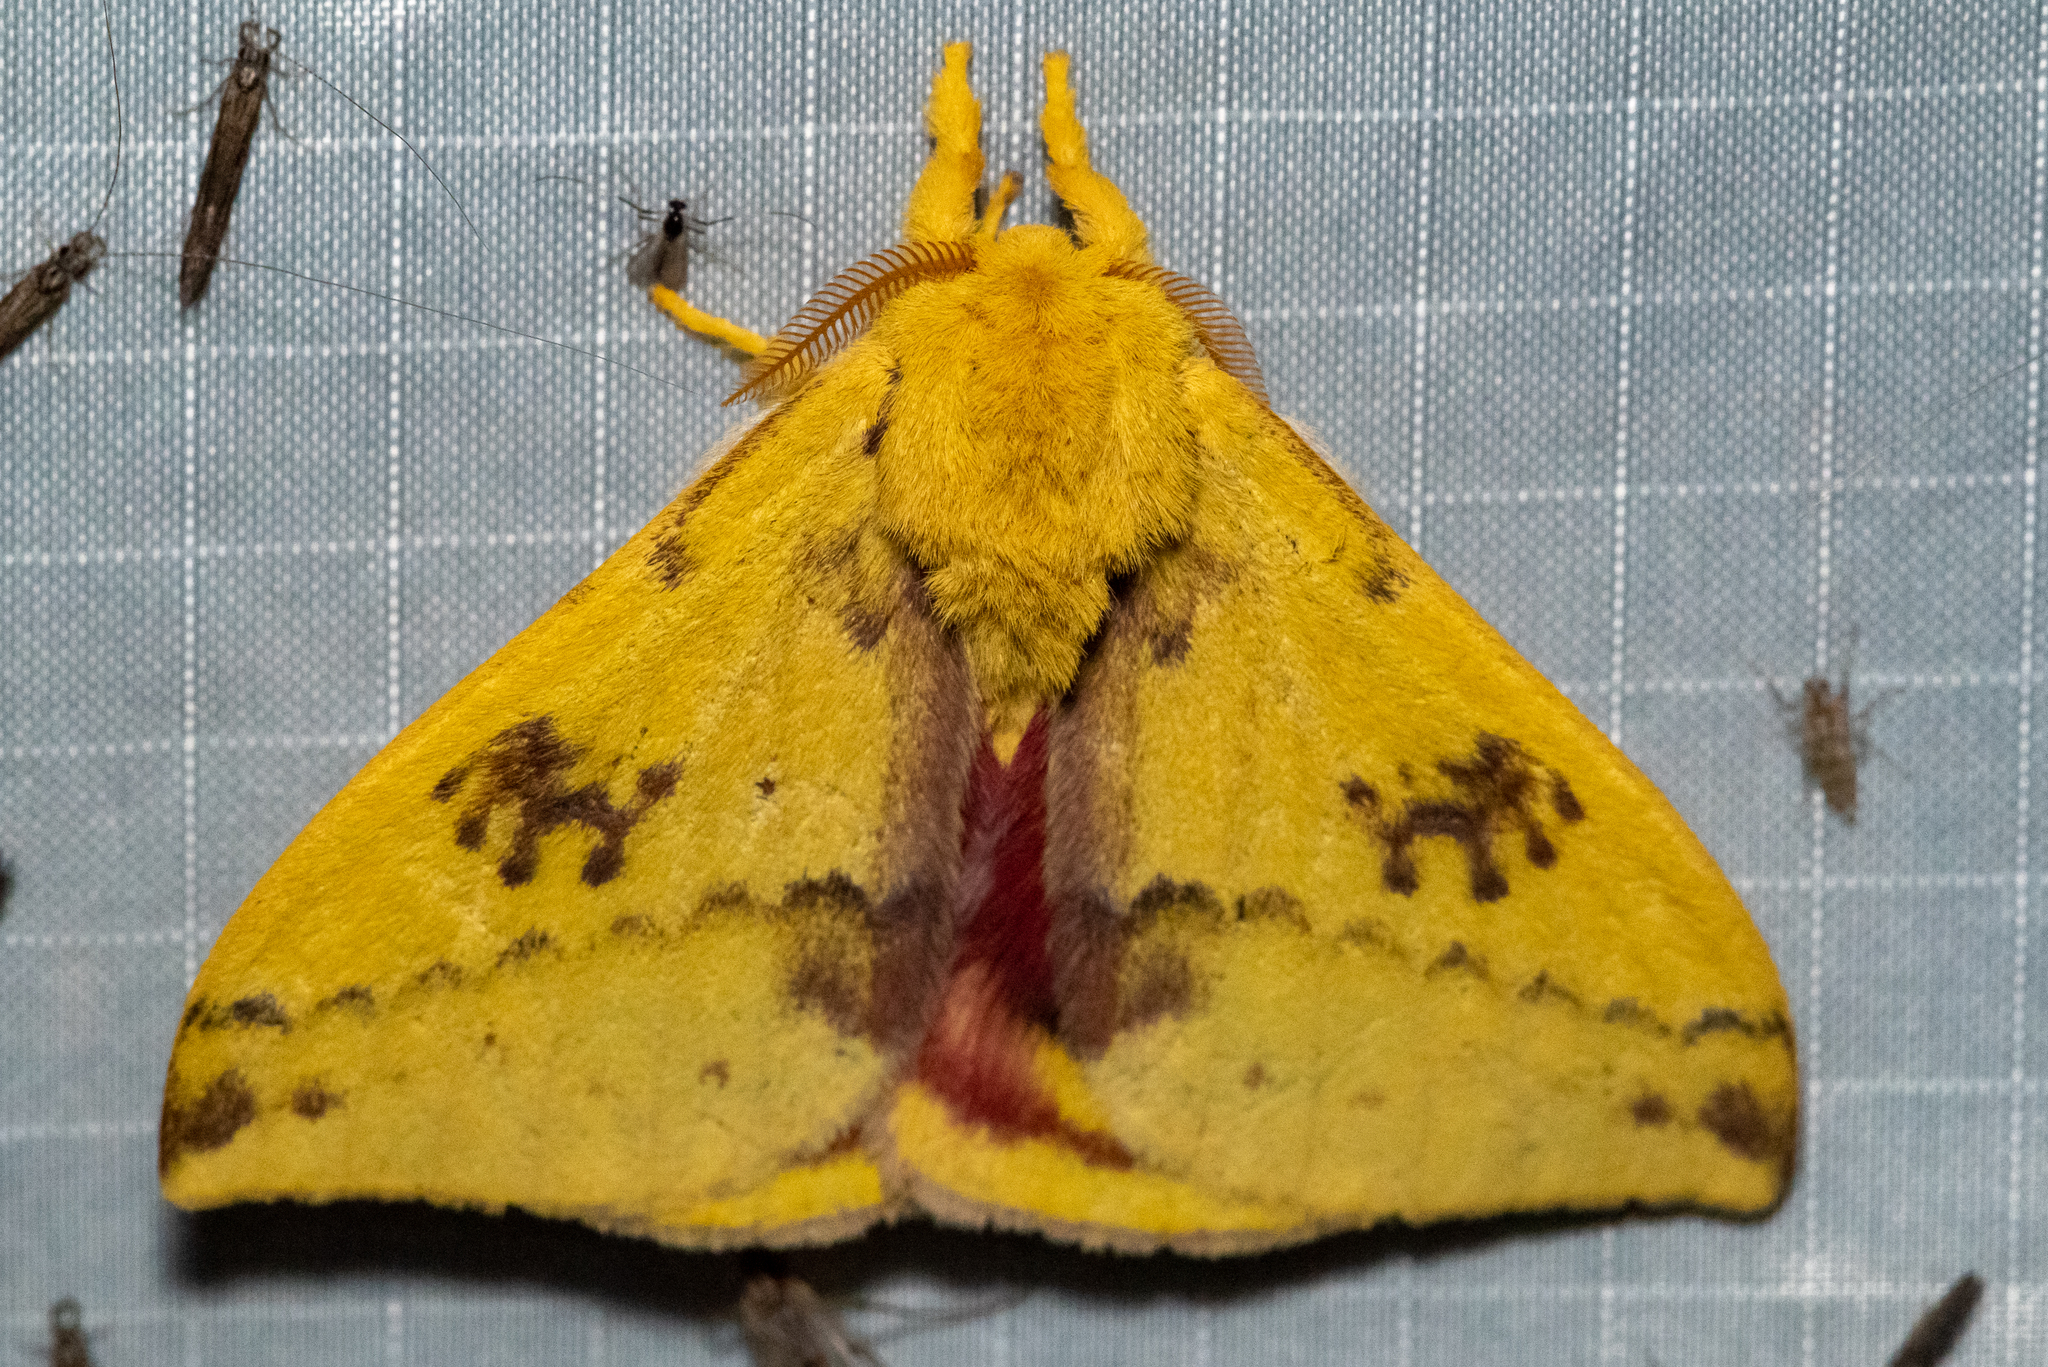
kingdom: Animalia
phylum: Arthropoda
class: Insecta
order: Lepidoptera
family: Saturniidae
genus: Automeris
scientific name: Automeris io
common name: Io moth
